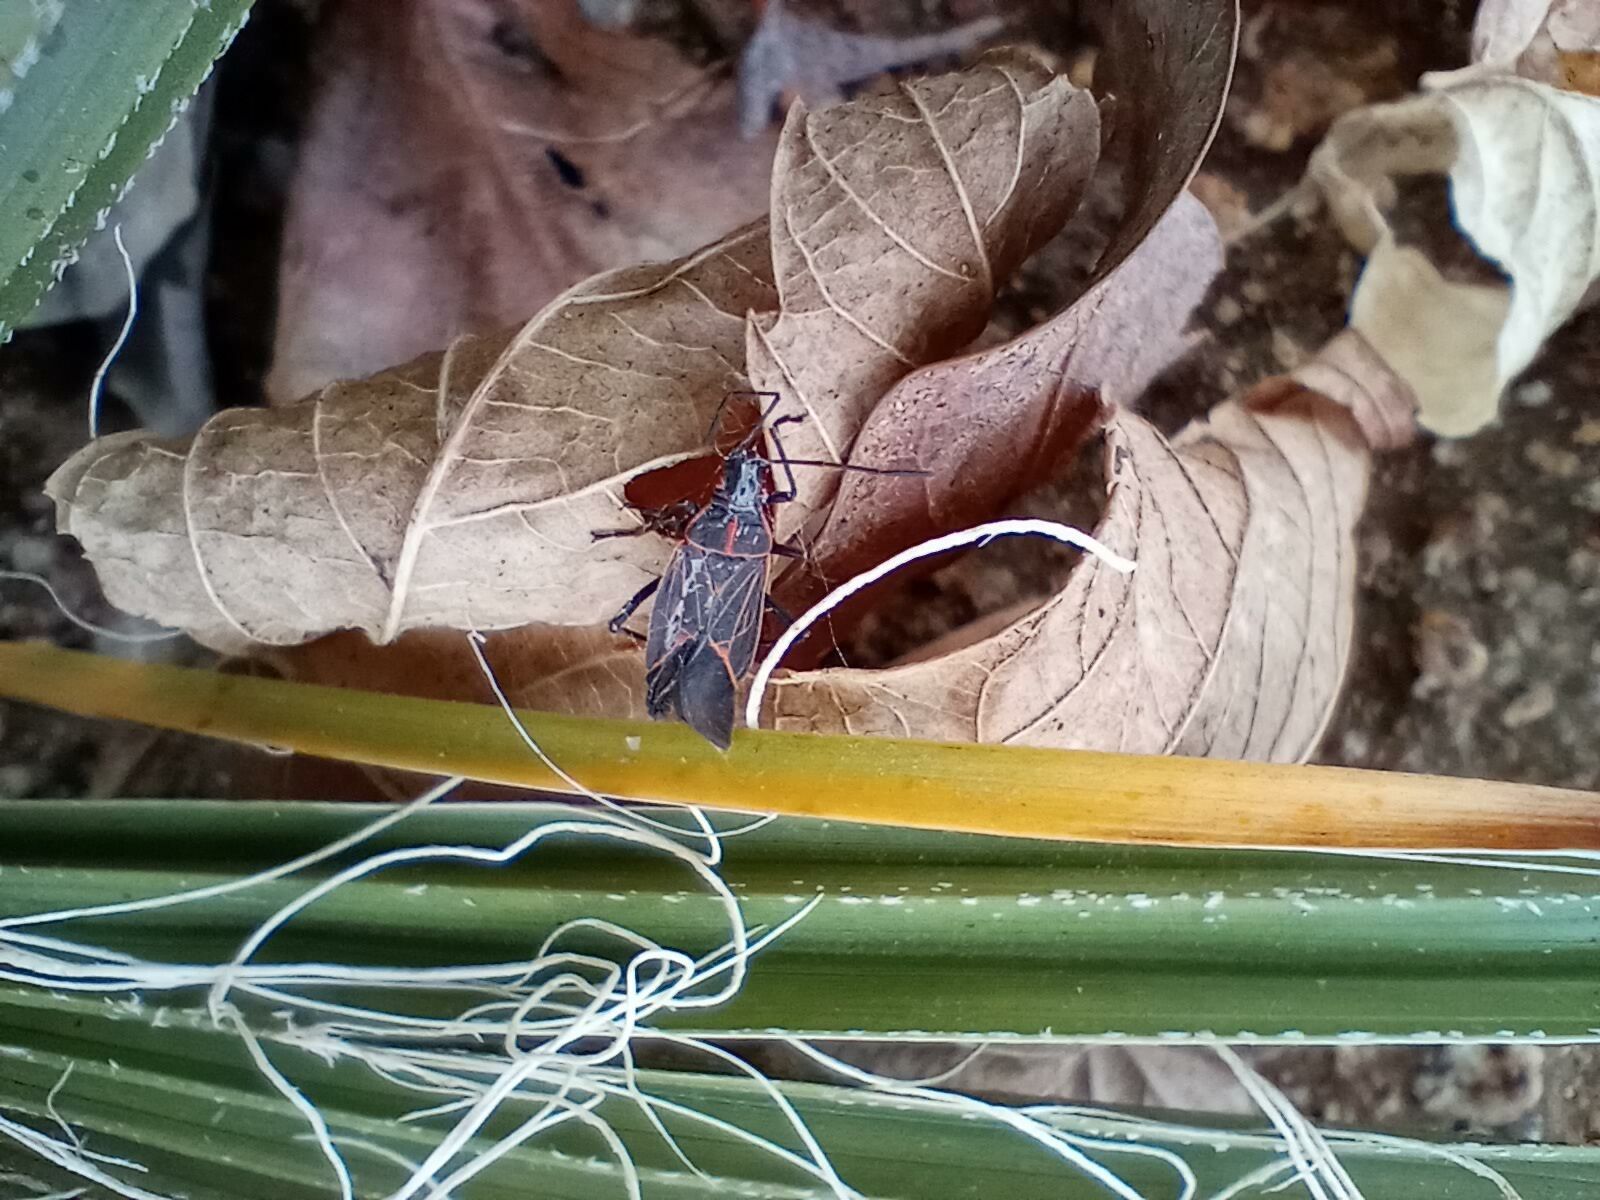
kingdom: Animalia
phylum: Arthropoda
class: Insecta
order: Hemiptera
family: Rhopalidae
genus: Boisea
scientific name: Boisea rubrolineata
